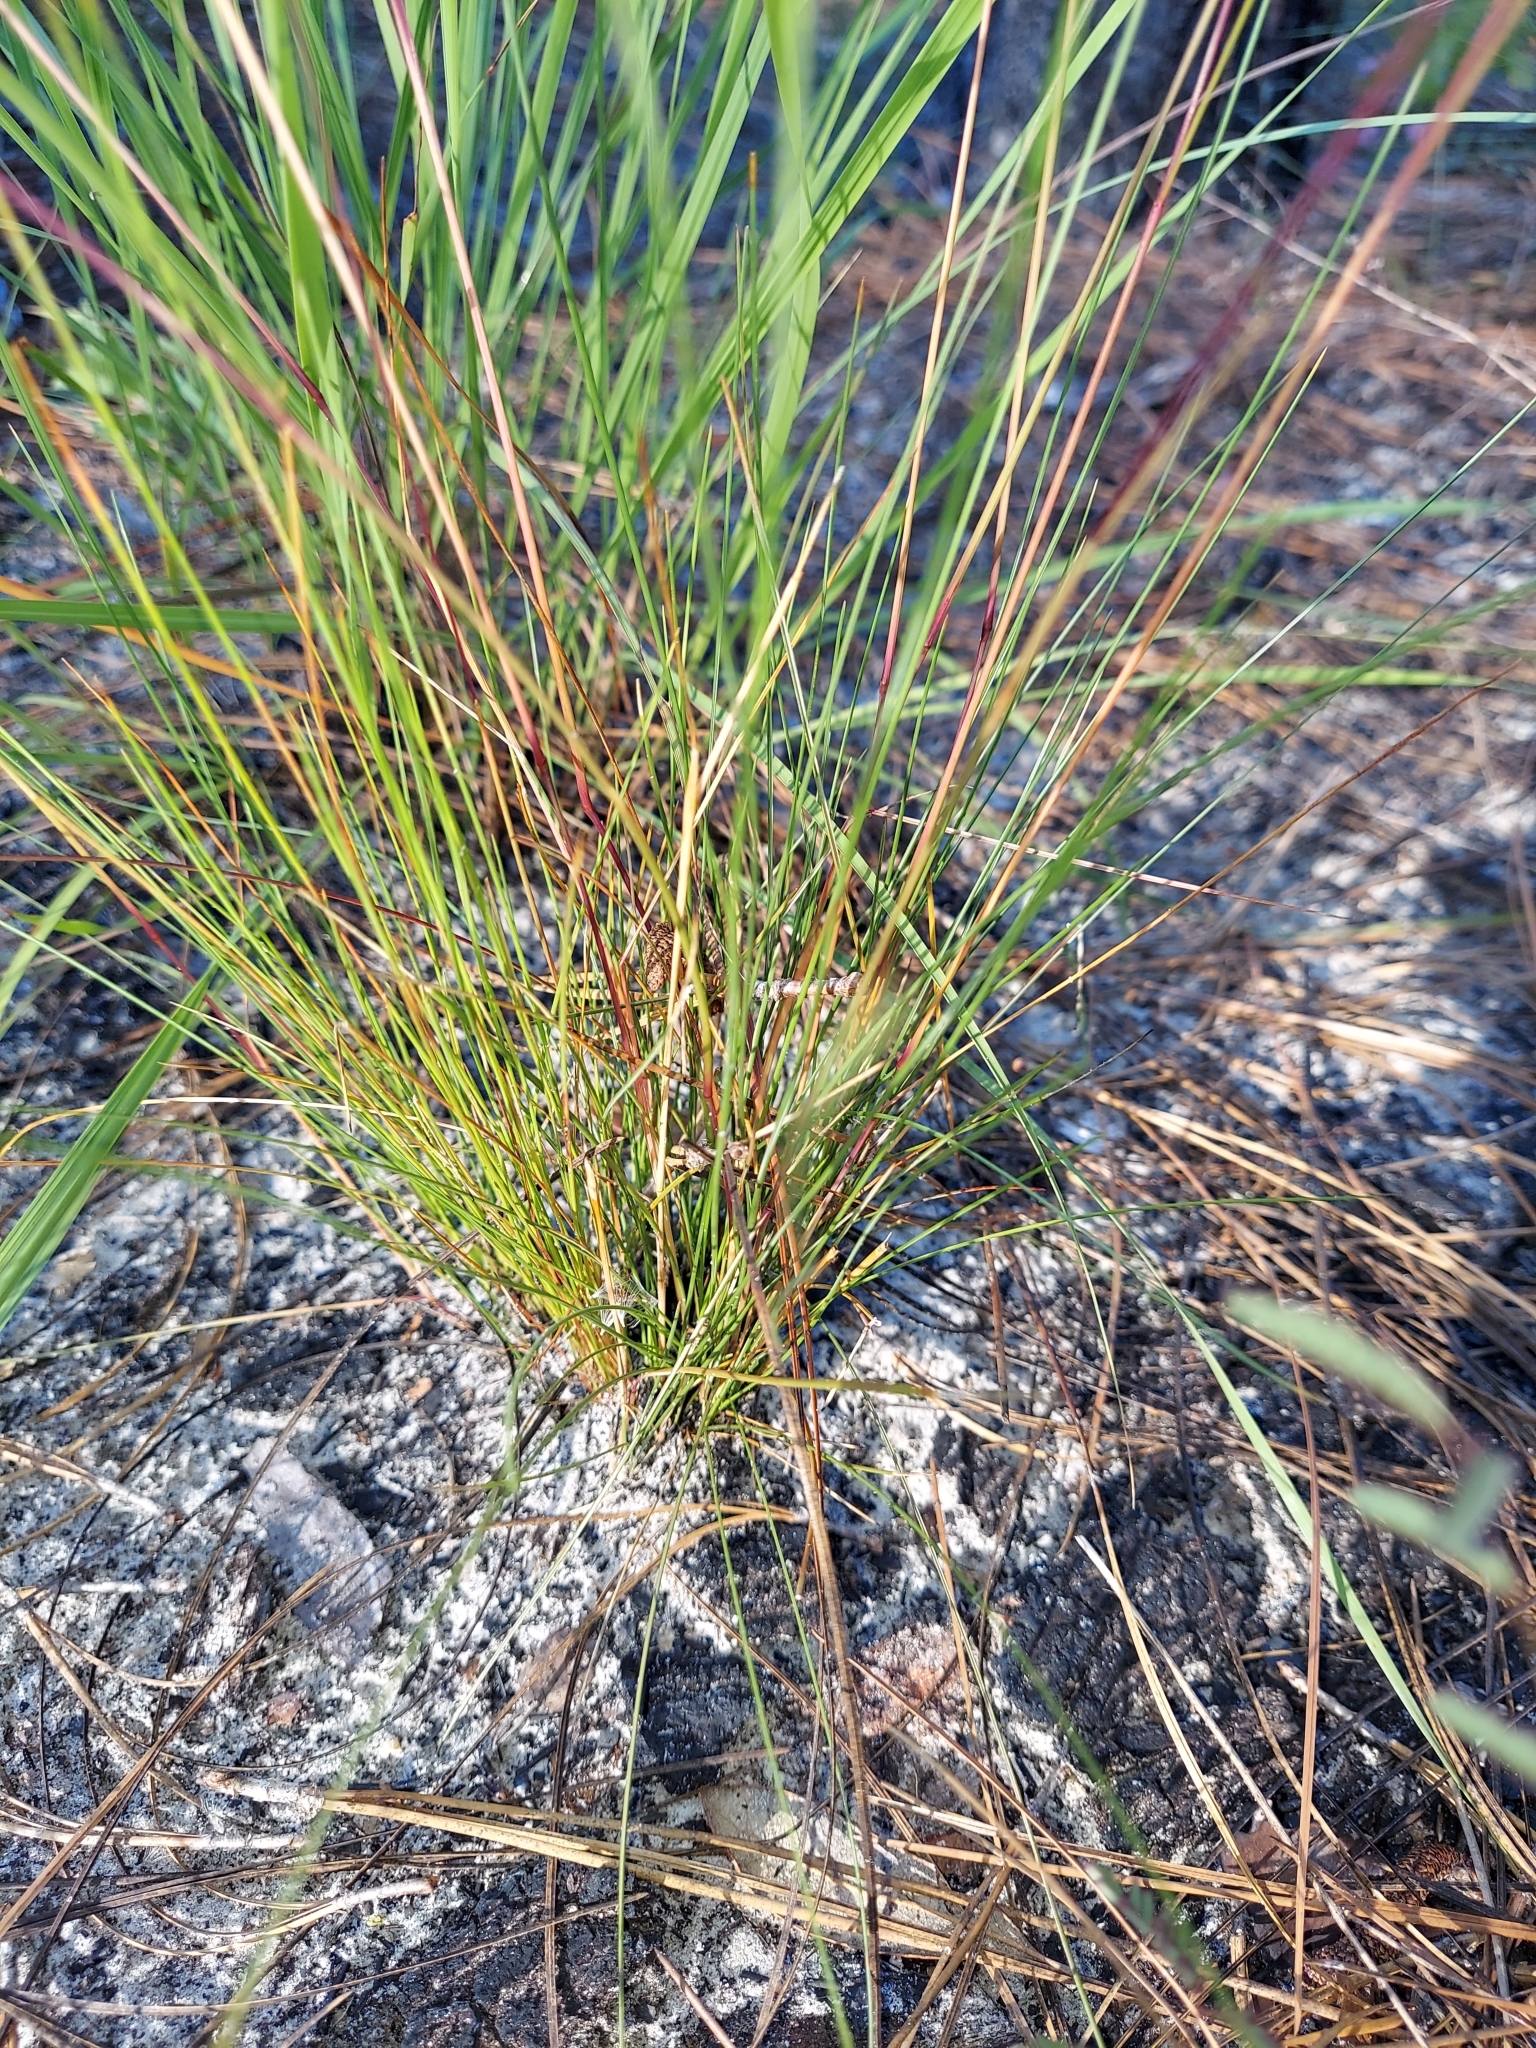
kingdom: Plantae
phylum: Tracheophyta
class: Liliopsida
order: Poales
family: Poaceae
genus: Sporobolus
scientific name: Sporobolus junceus
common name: Lizard grass
